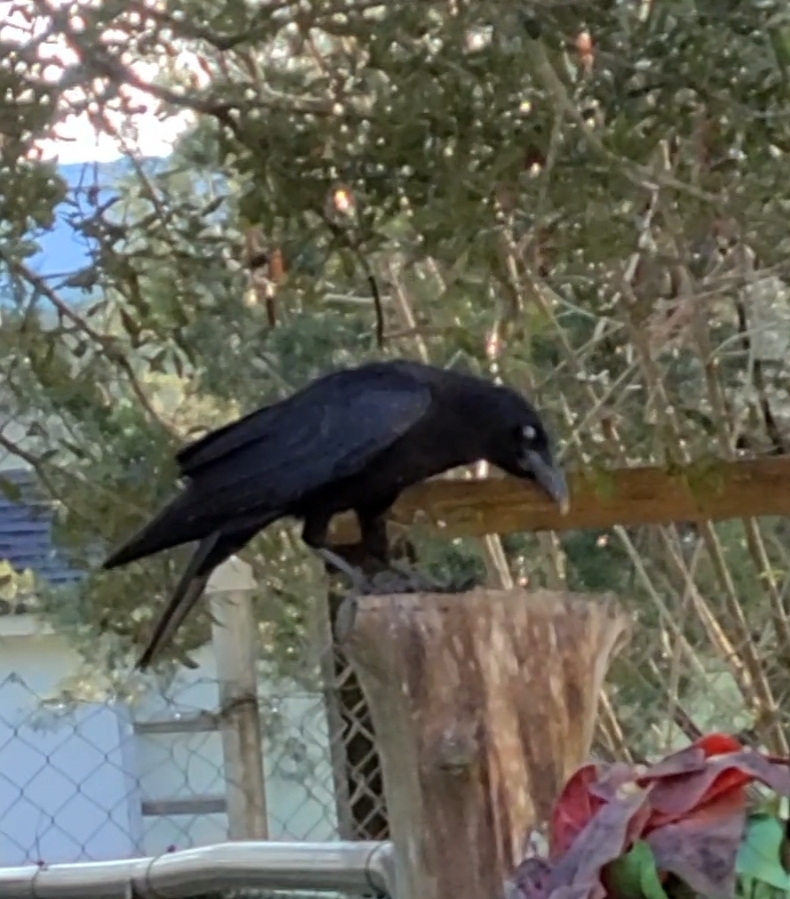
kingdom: Animalia
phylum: Chordata
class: Aves
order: Passeriformes
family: Corvidae
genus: Corvus
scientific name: Corvus brachyrhynchos
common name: American crow
